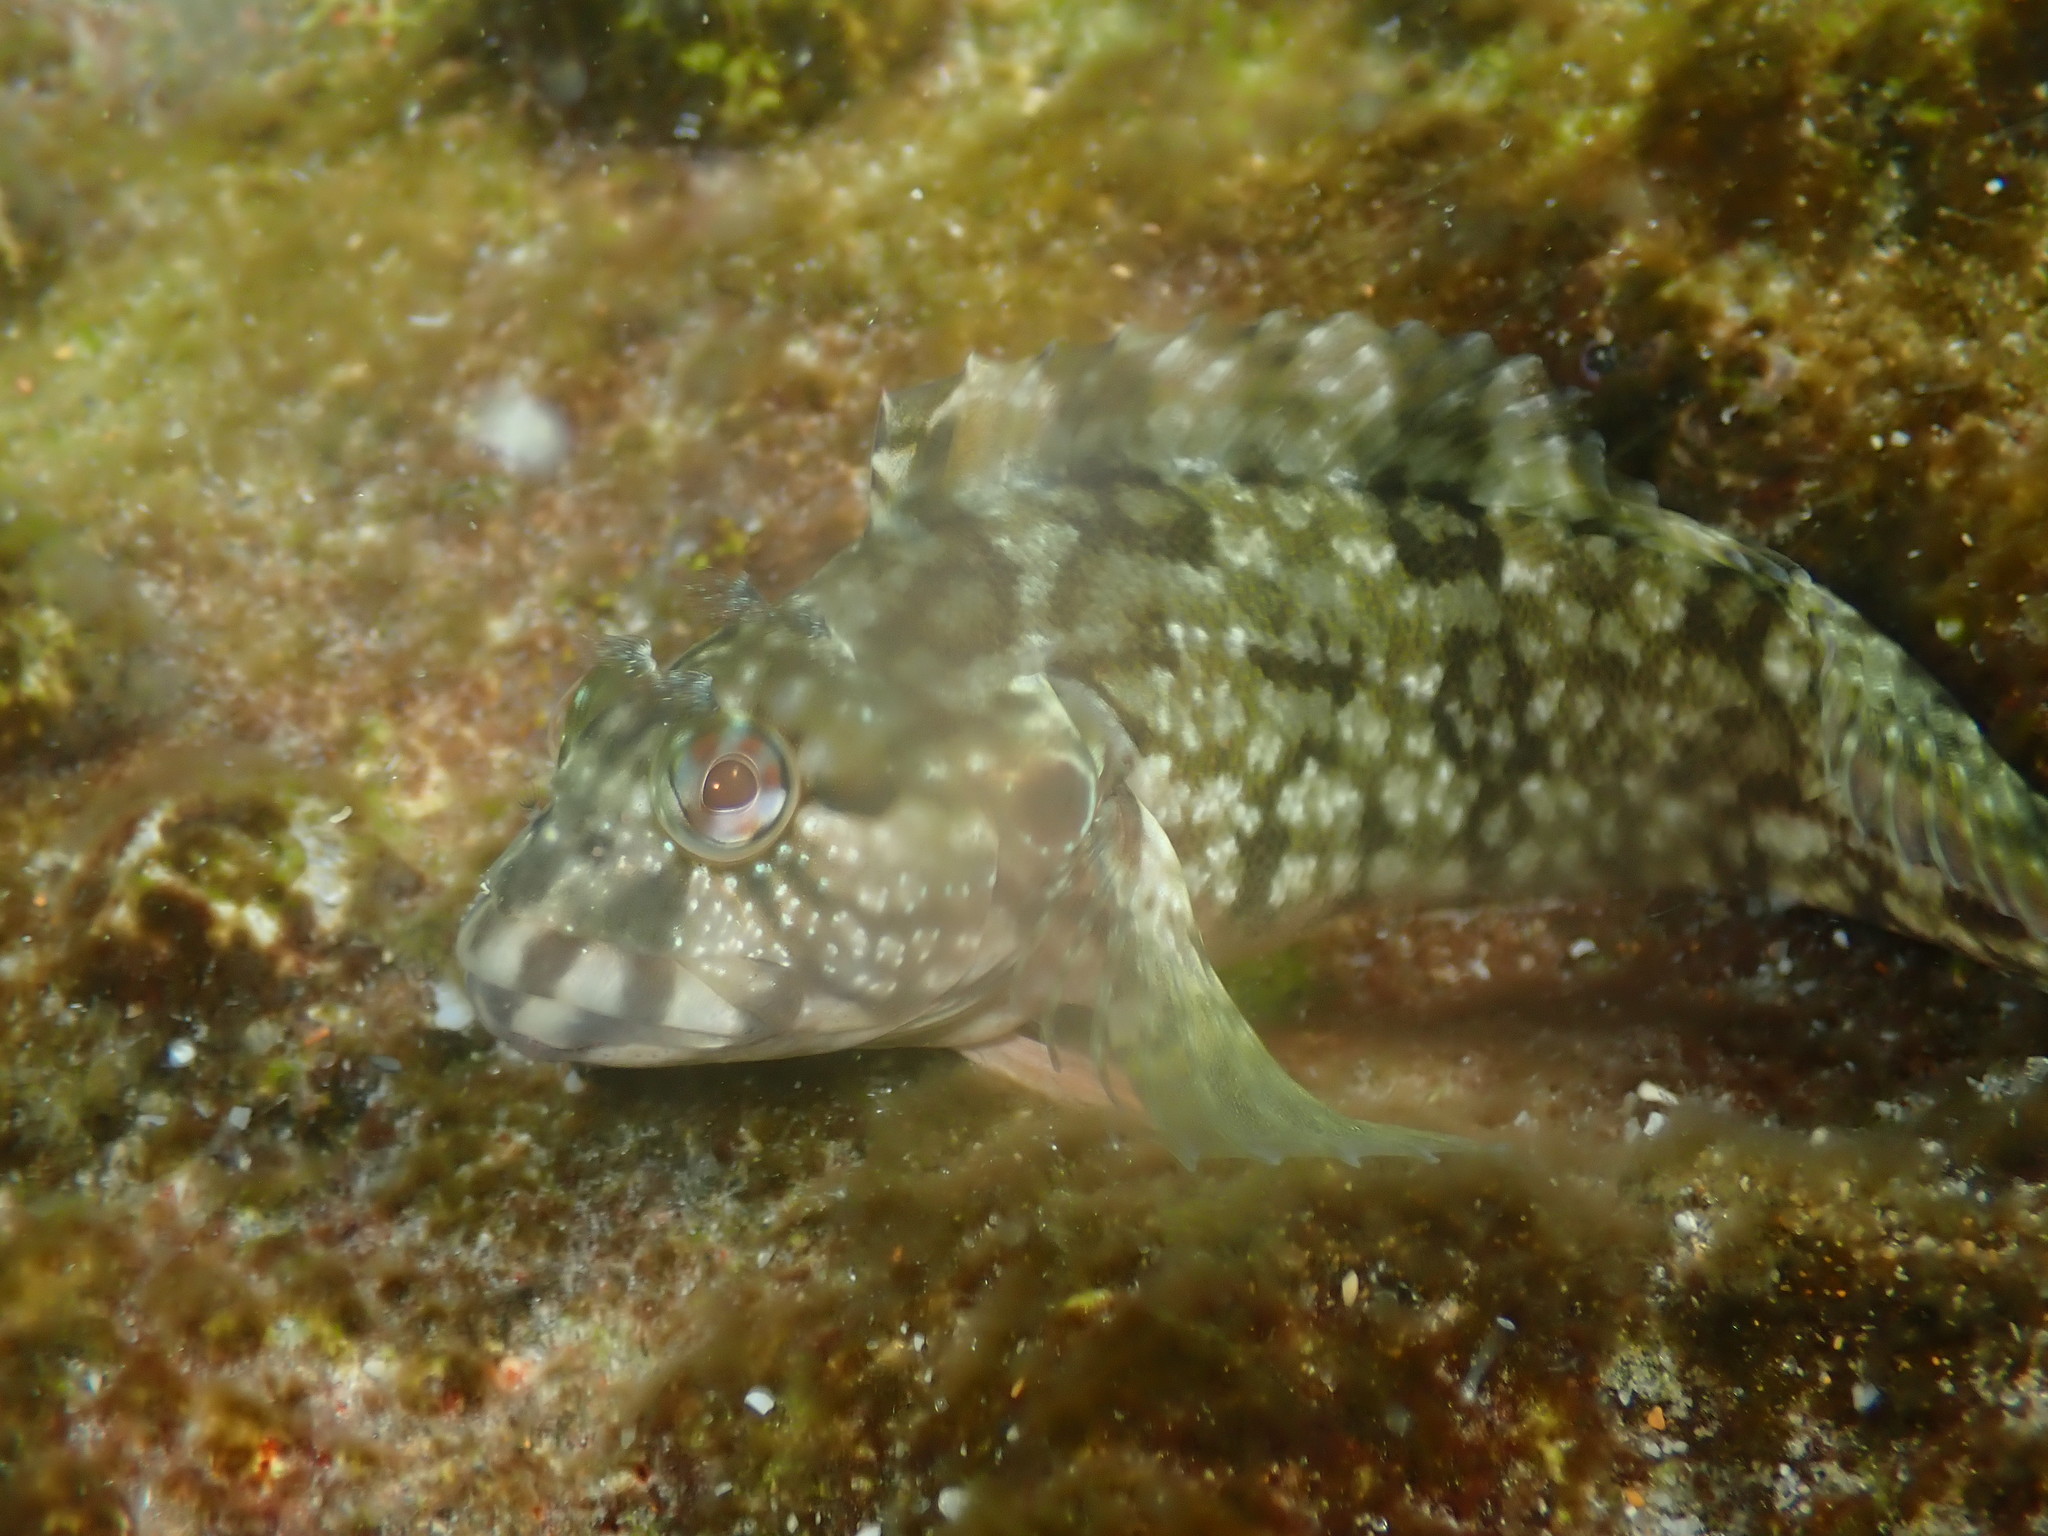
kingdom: Animalia
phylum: Chordata
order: Perciformes
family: Labrisomidae
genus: Labrisomus
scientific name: Labrisomus conditus
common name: Masquerader hairy blenny
